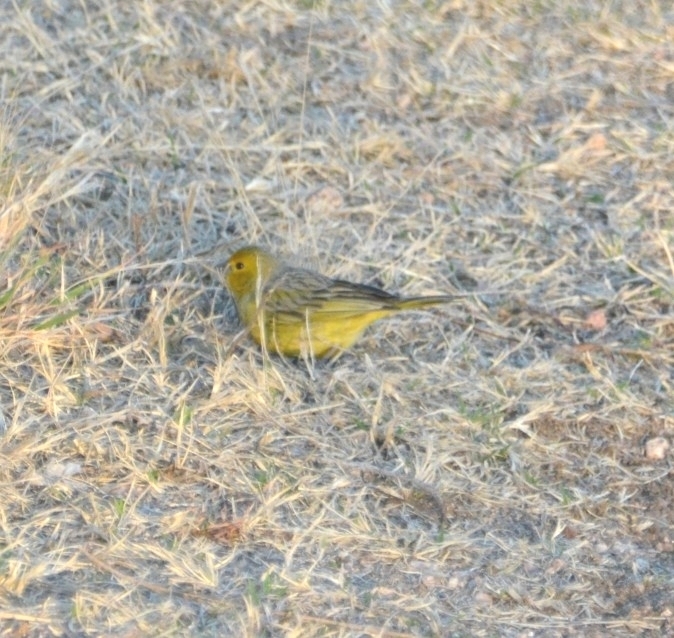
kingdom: Animalia
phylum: Chordata
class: Aves
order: Passeriformes
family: Thraupidae
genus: Sicalis
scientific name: Sicalis flaveola
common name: Saffron finch
